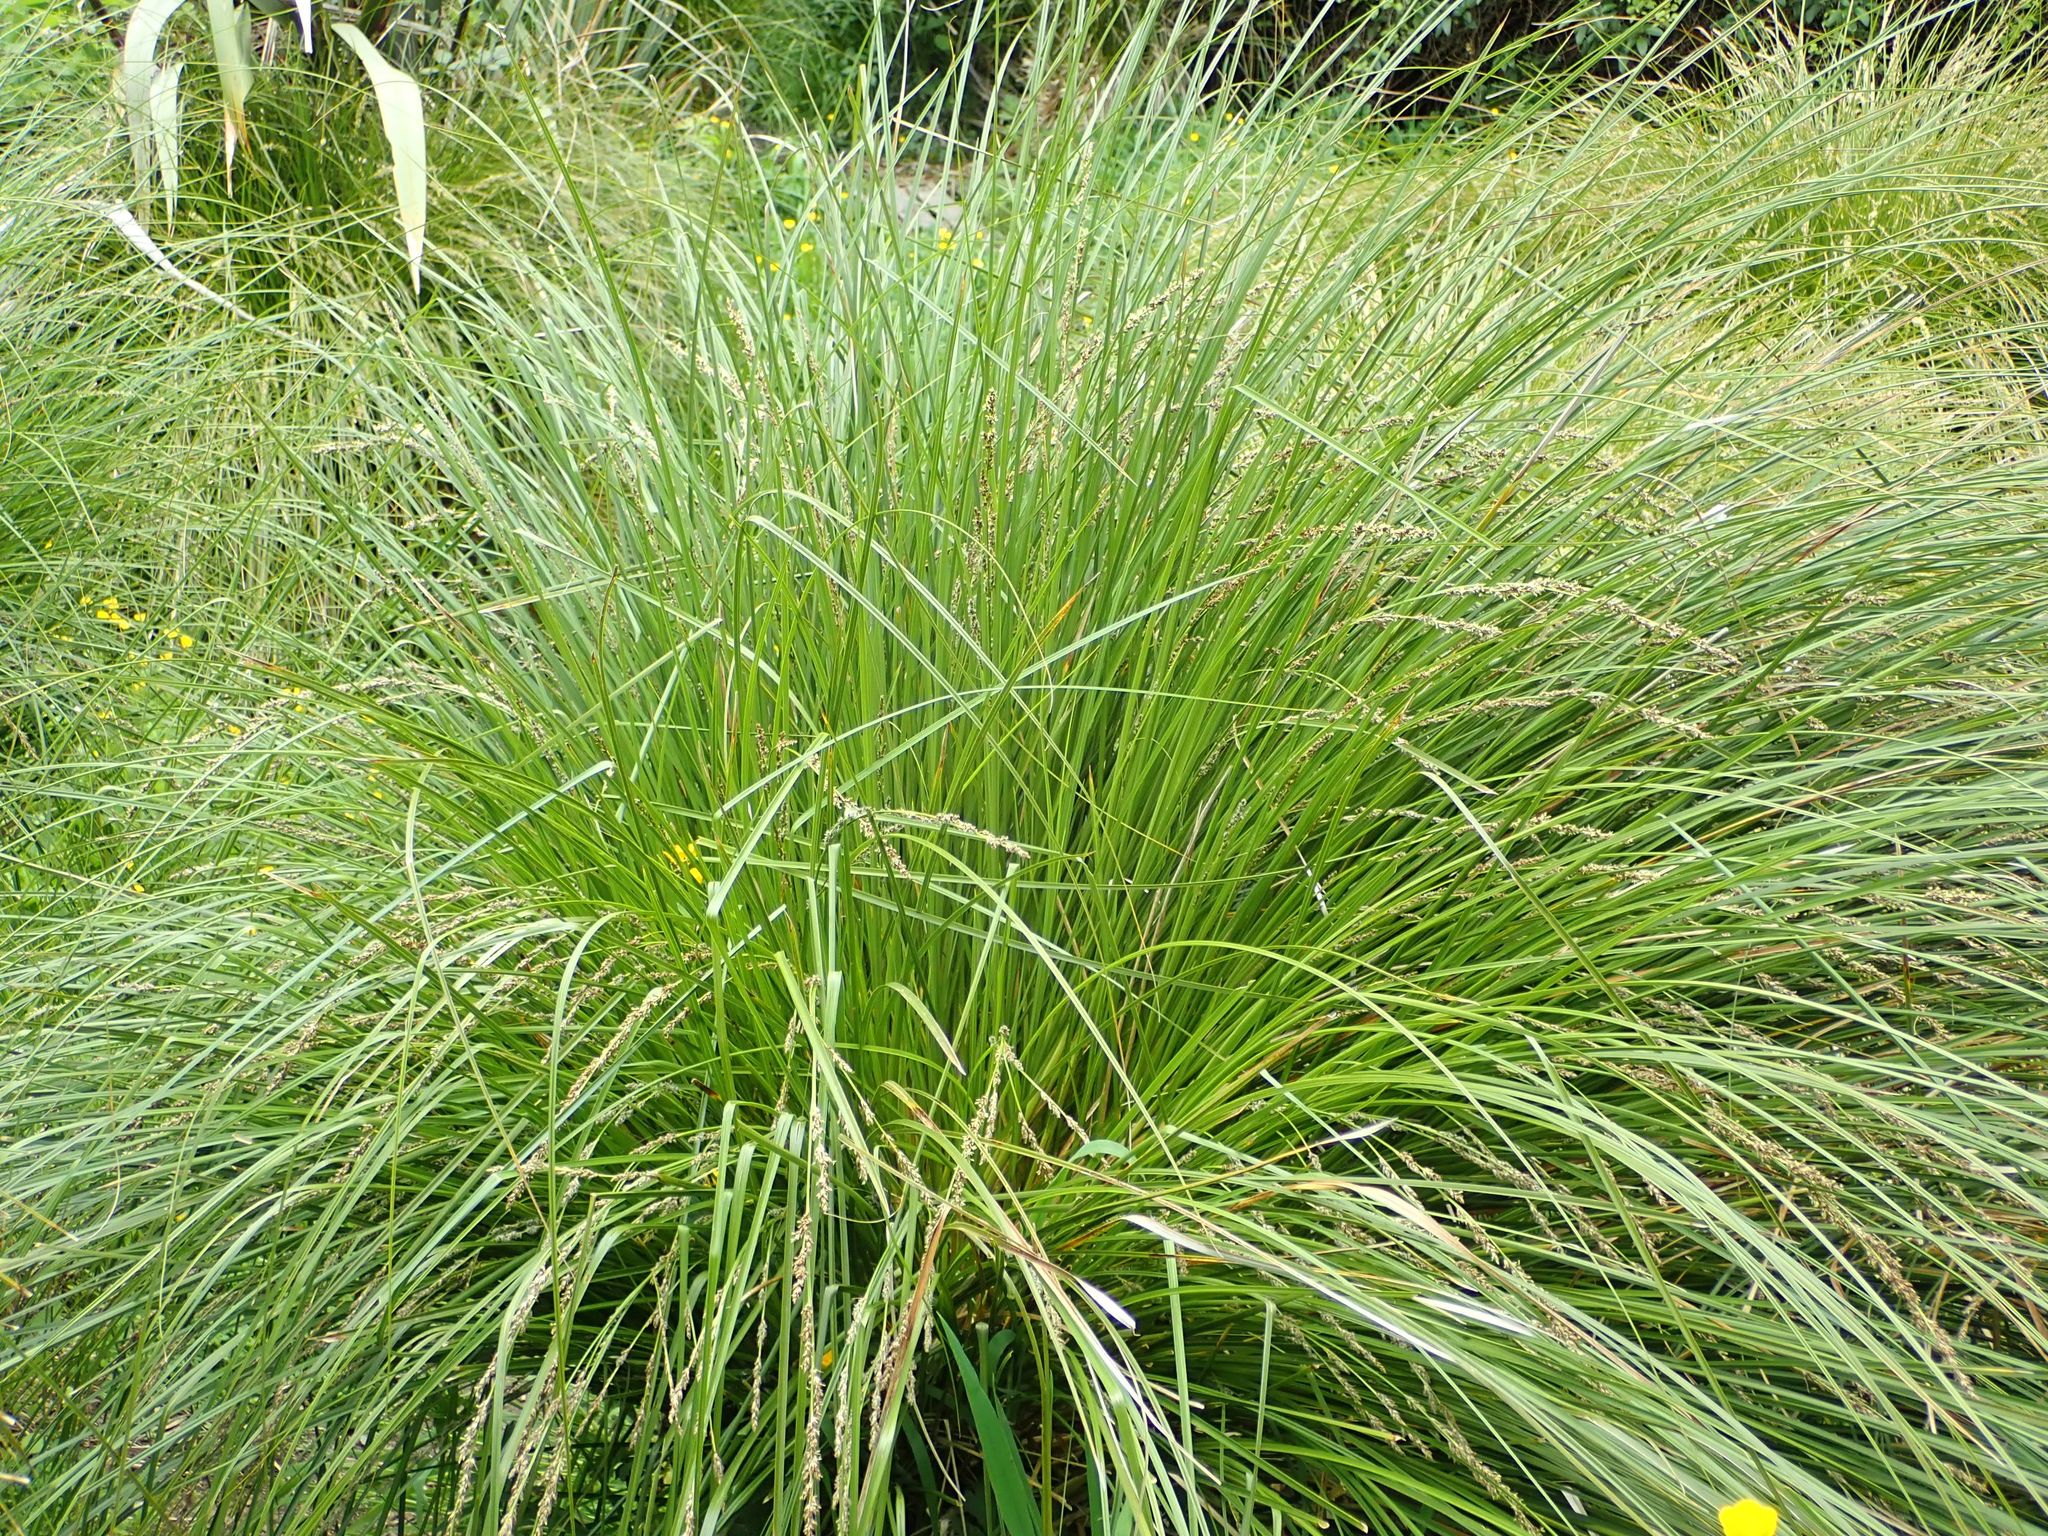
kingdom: Plantae
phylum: Tracheophyta
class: Liliopsida
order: Poales
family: Cyperaceae
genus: Carex
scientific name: Carex secta
